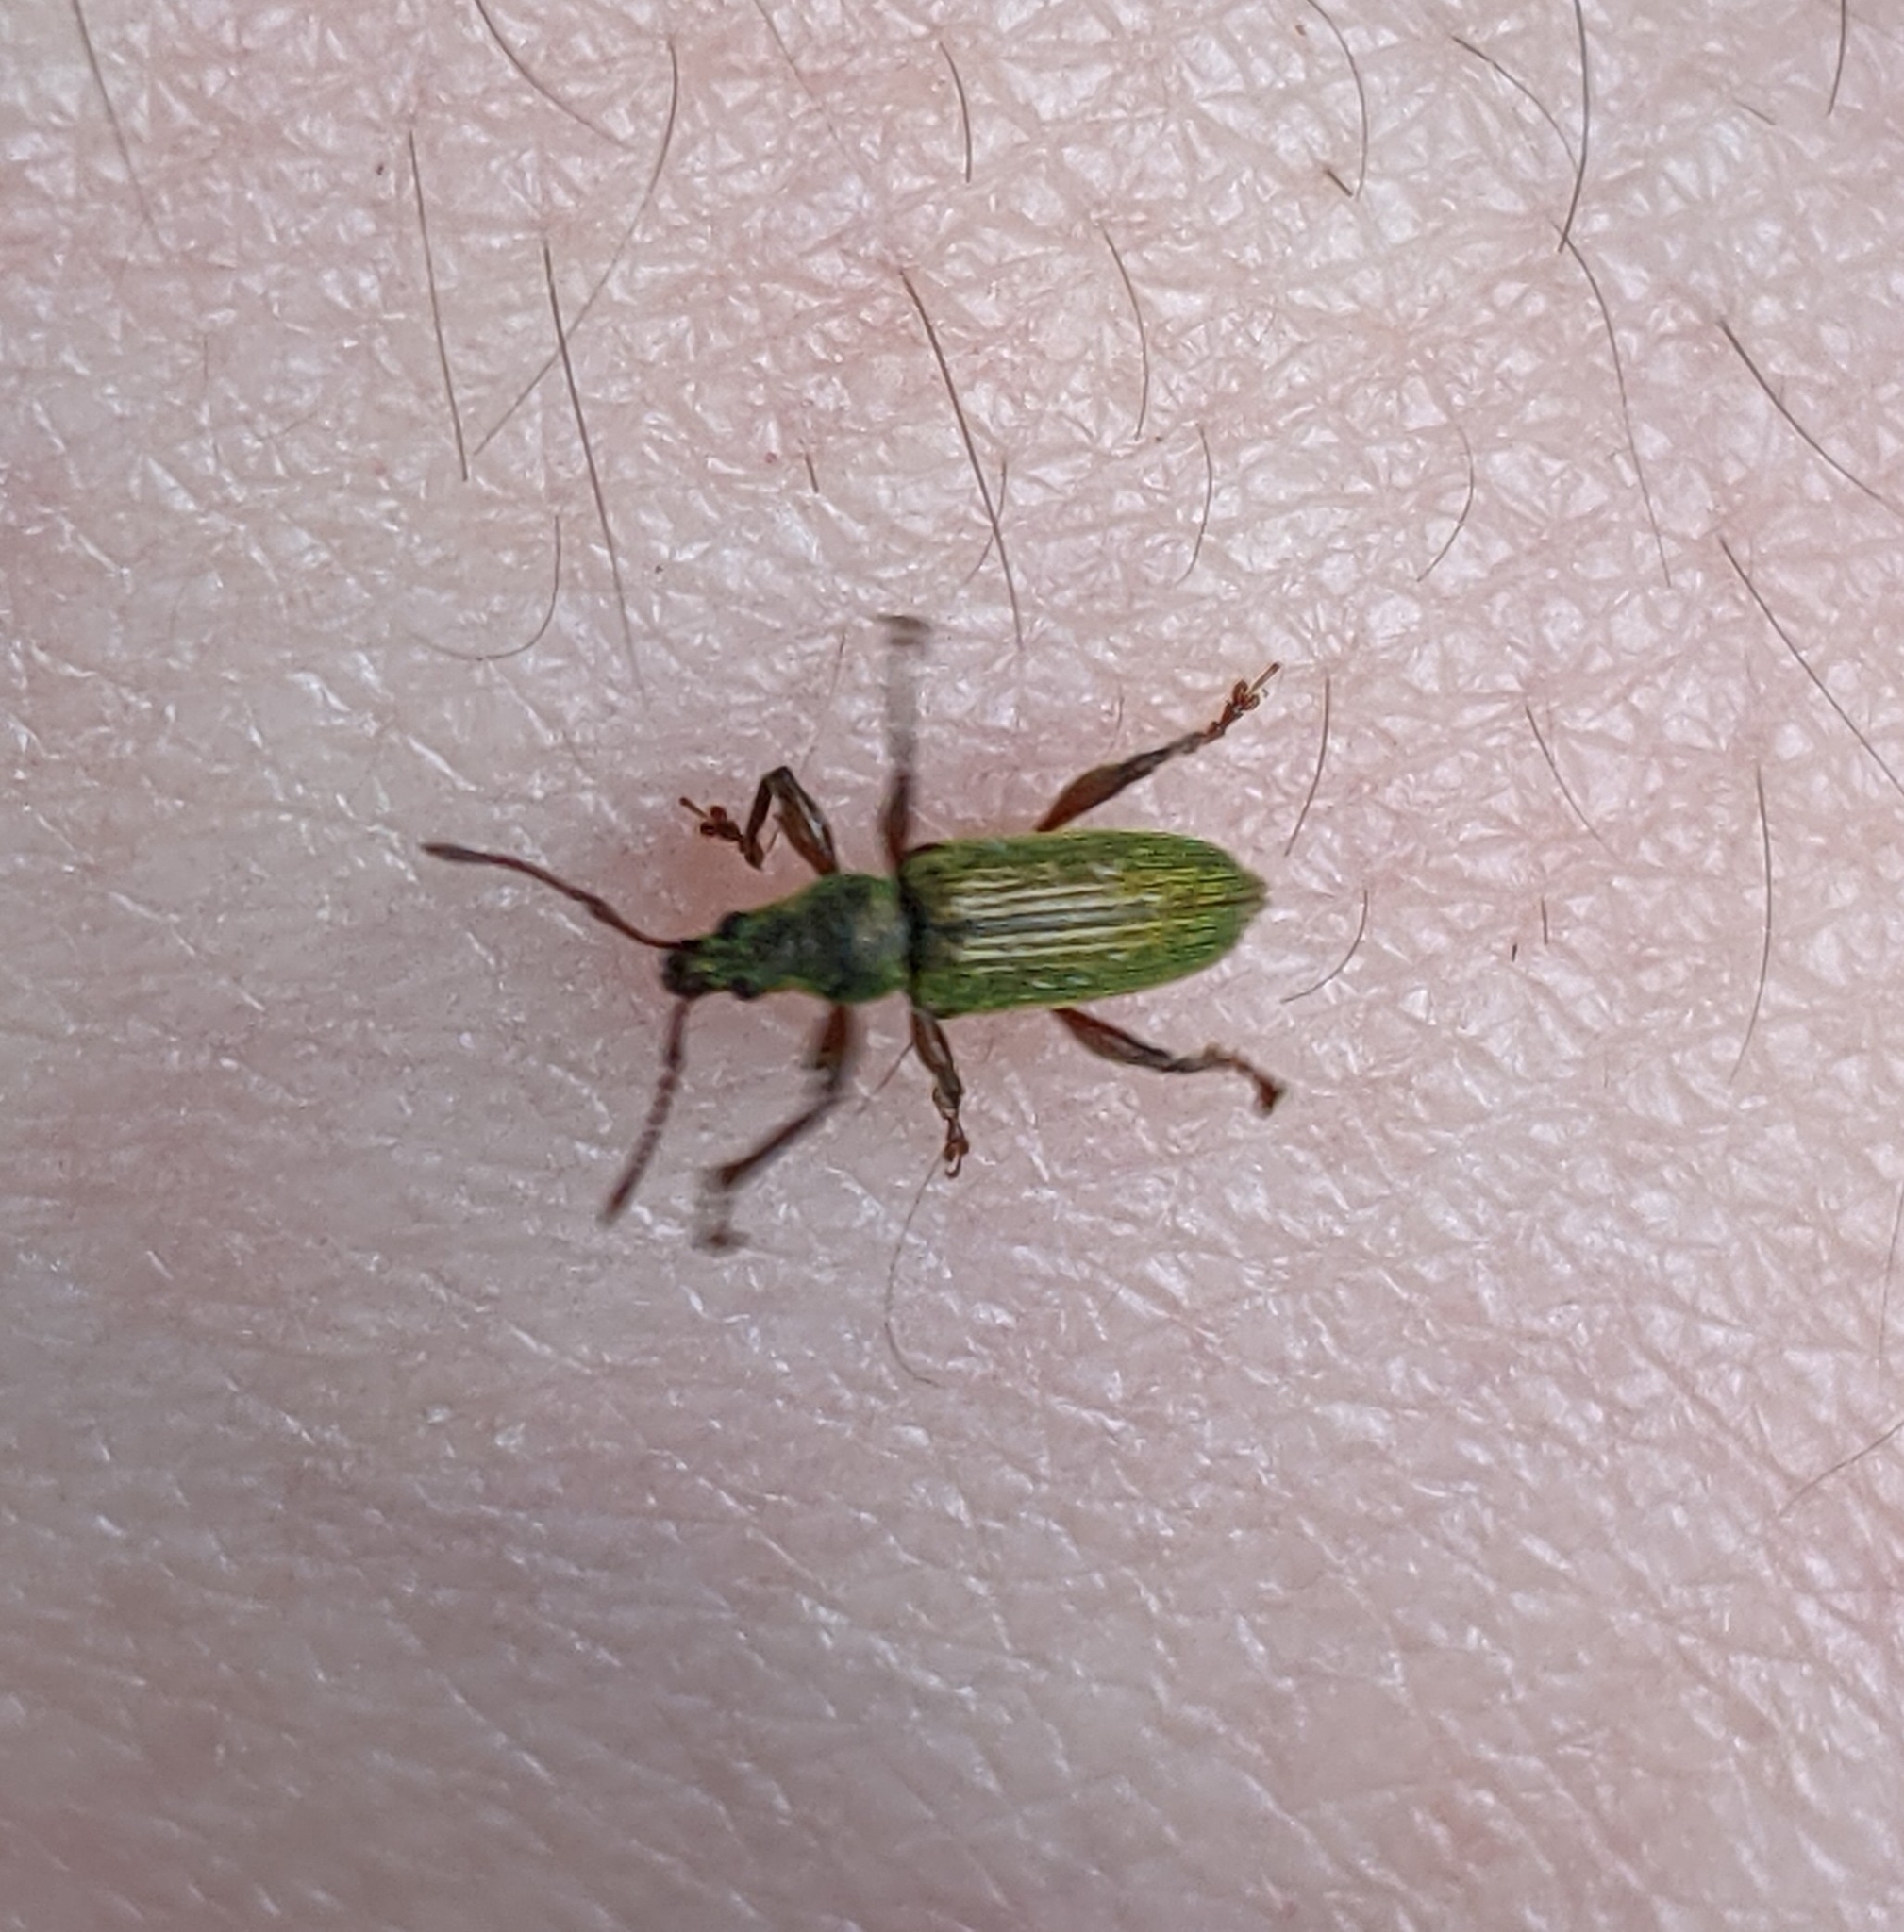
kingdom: Animalia
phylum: Arthropoda
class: Insecta
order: Coleoptera
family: Curculionidae
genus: Parascythopus
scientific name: Parascythopus intrusus
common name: Weevil
